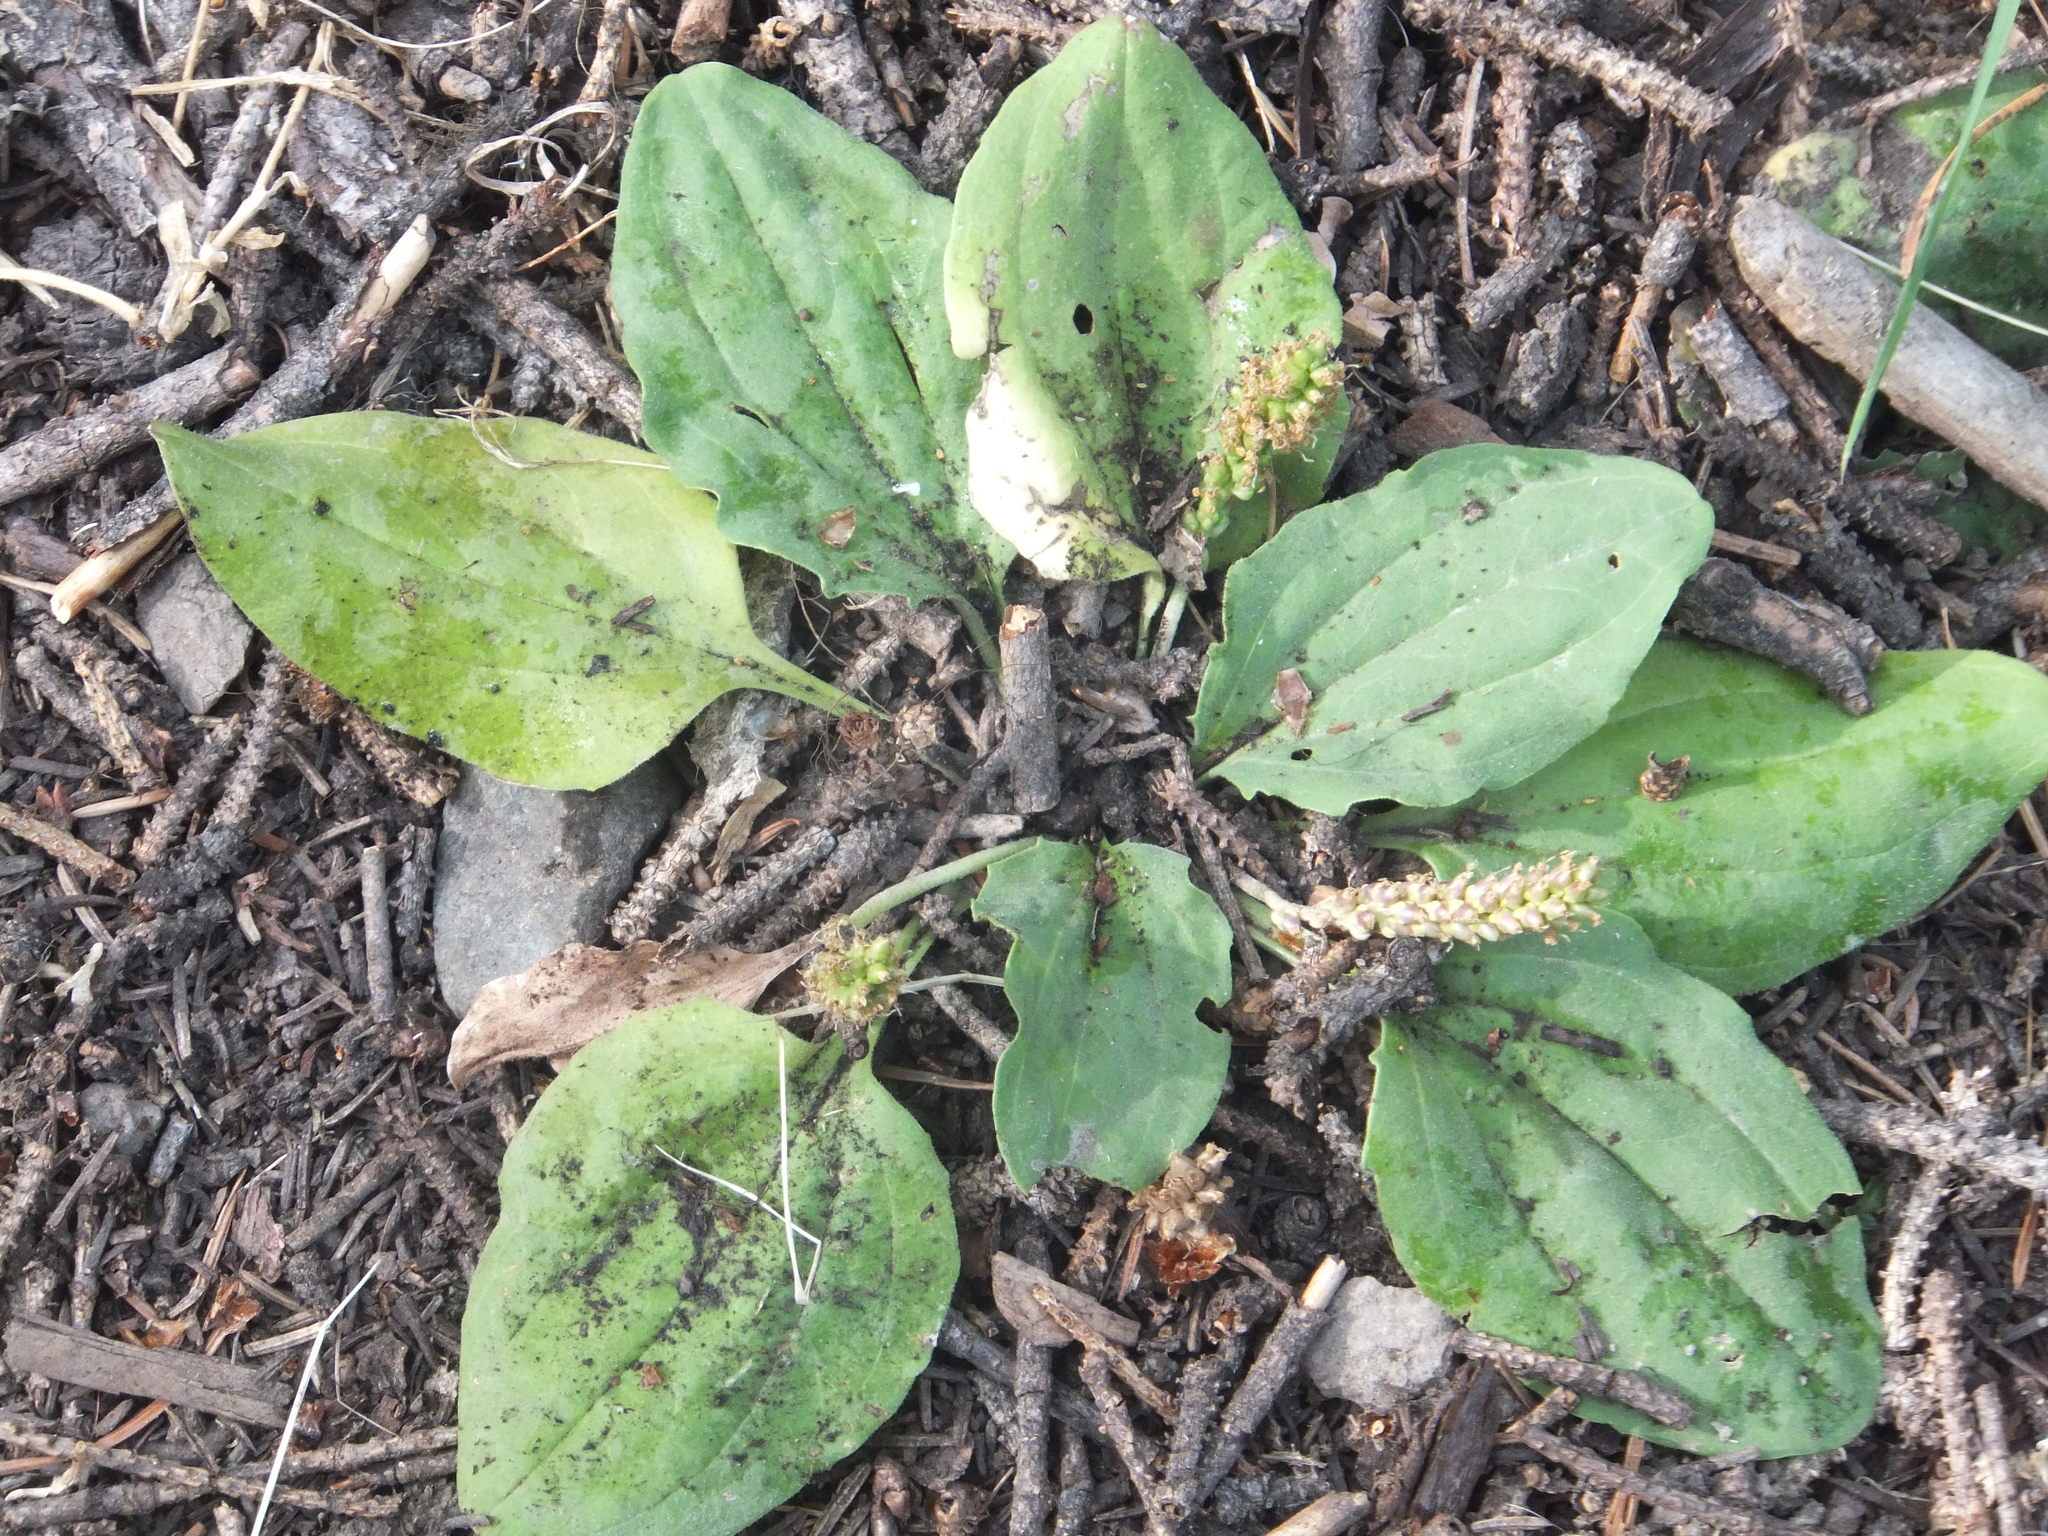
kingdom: Plantae
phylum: Tracheophyta
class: Magnoliopsida
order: Lamiales
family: Plantaginaceae
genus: Plantago
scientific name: Plantago major
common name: Common plantain
